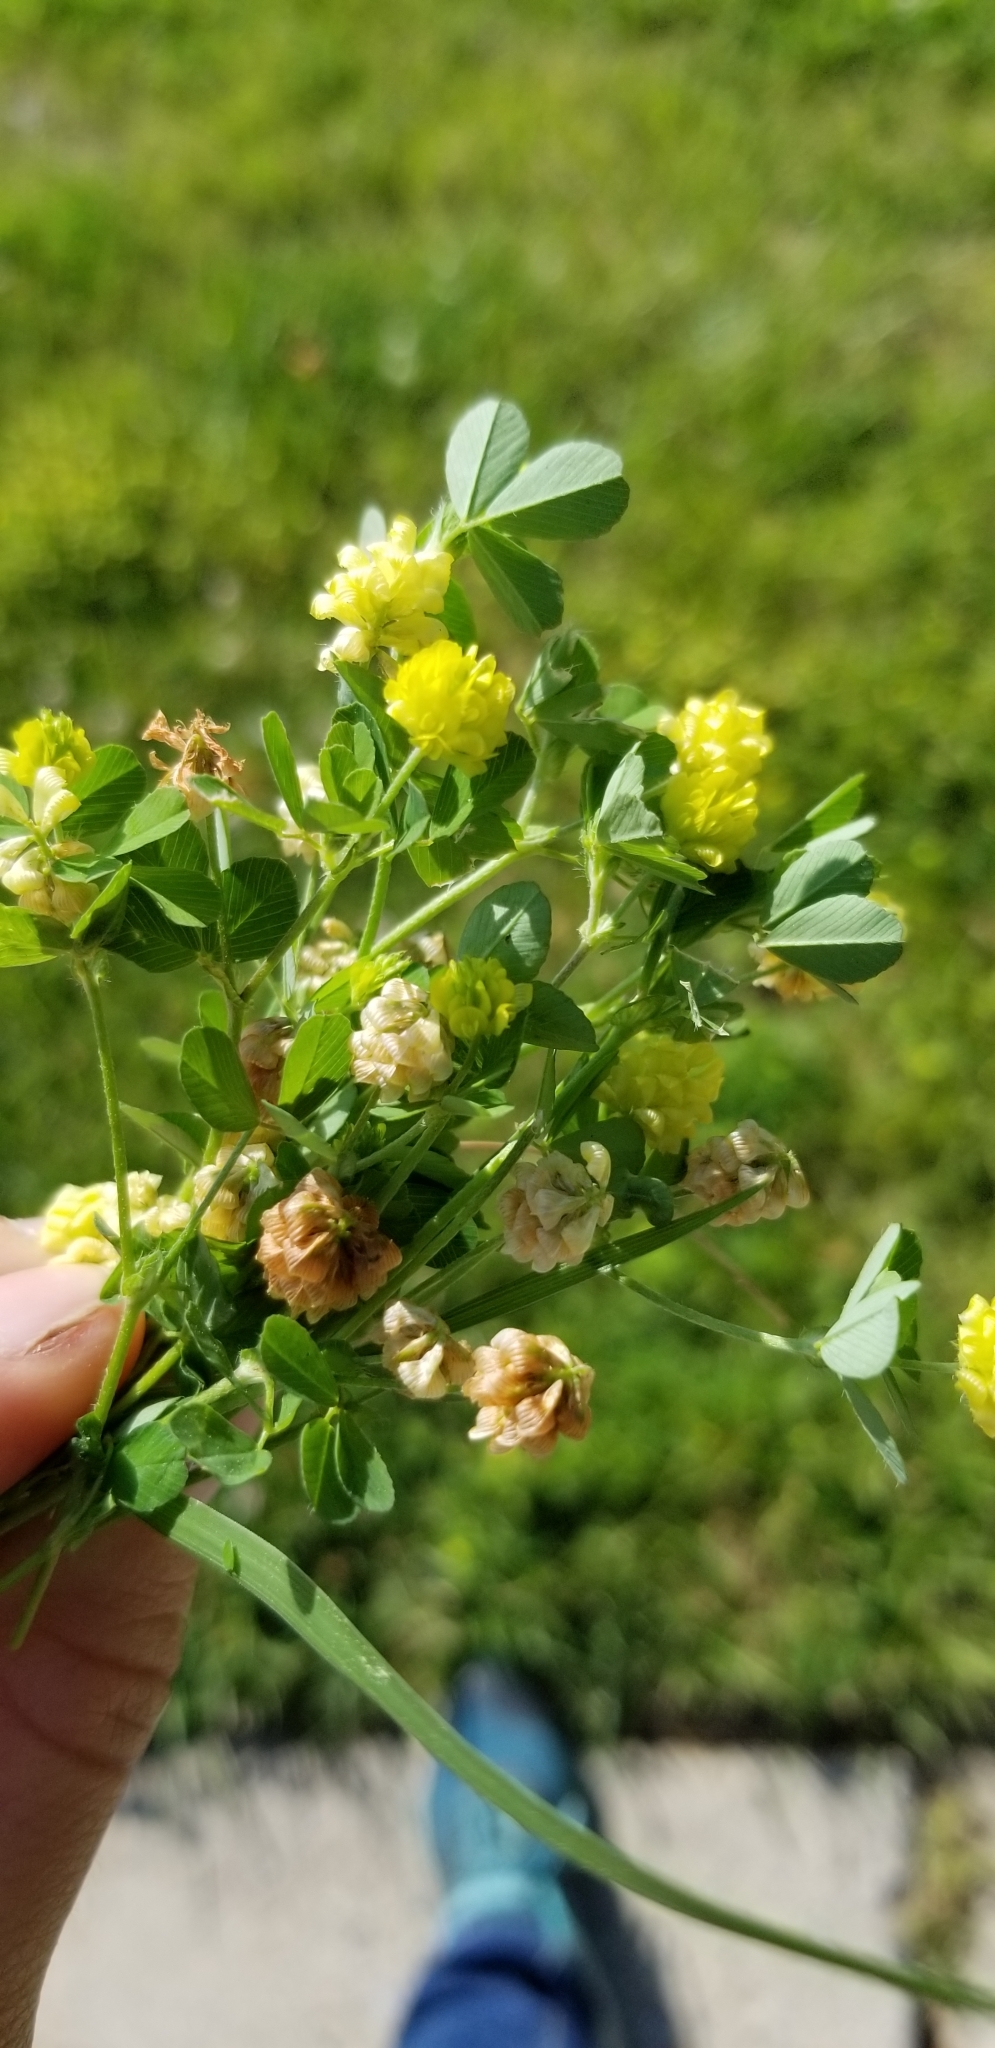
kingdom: Plantae
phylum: Tracheophyta
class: Magnoliopsida
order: Fabales
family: Fabaceae
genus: Trifolium
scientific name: Trifolium campestre
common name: Field clover
